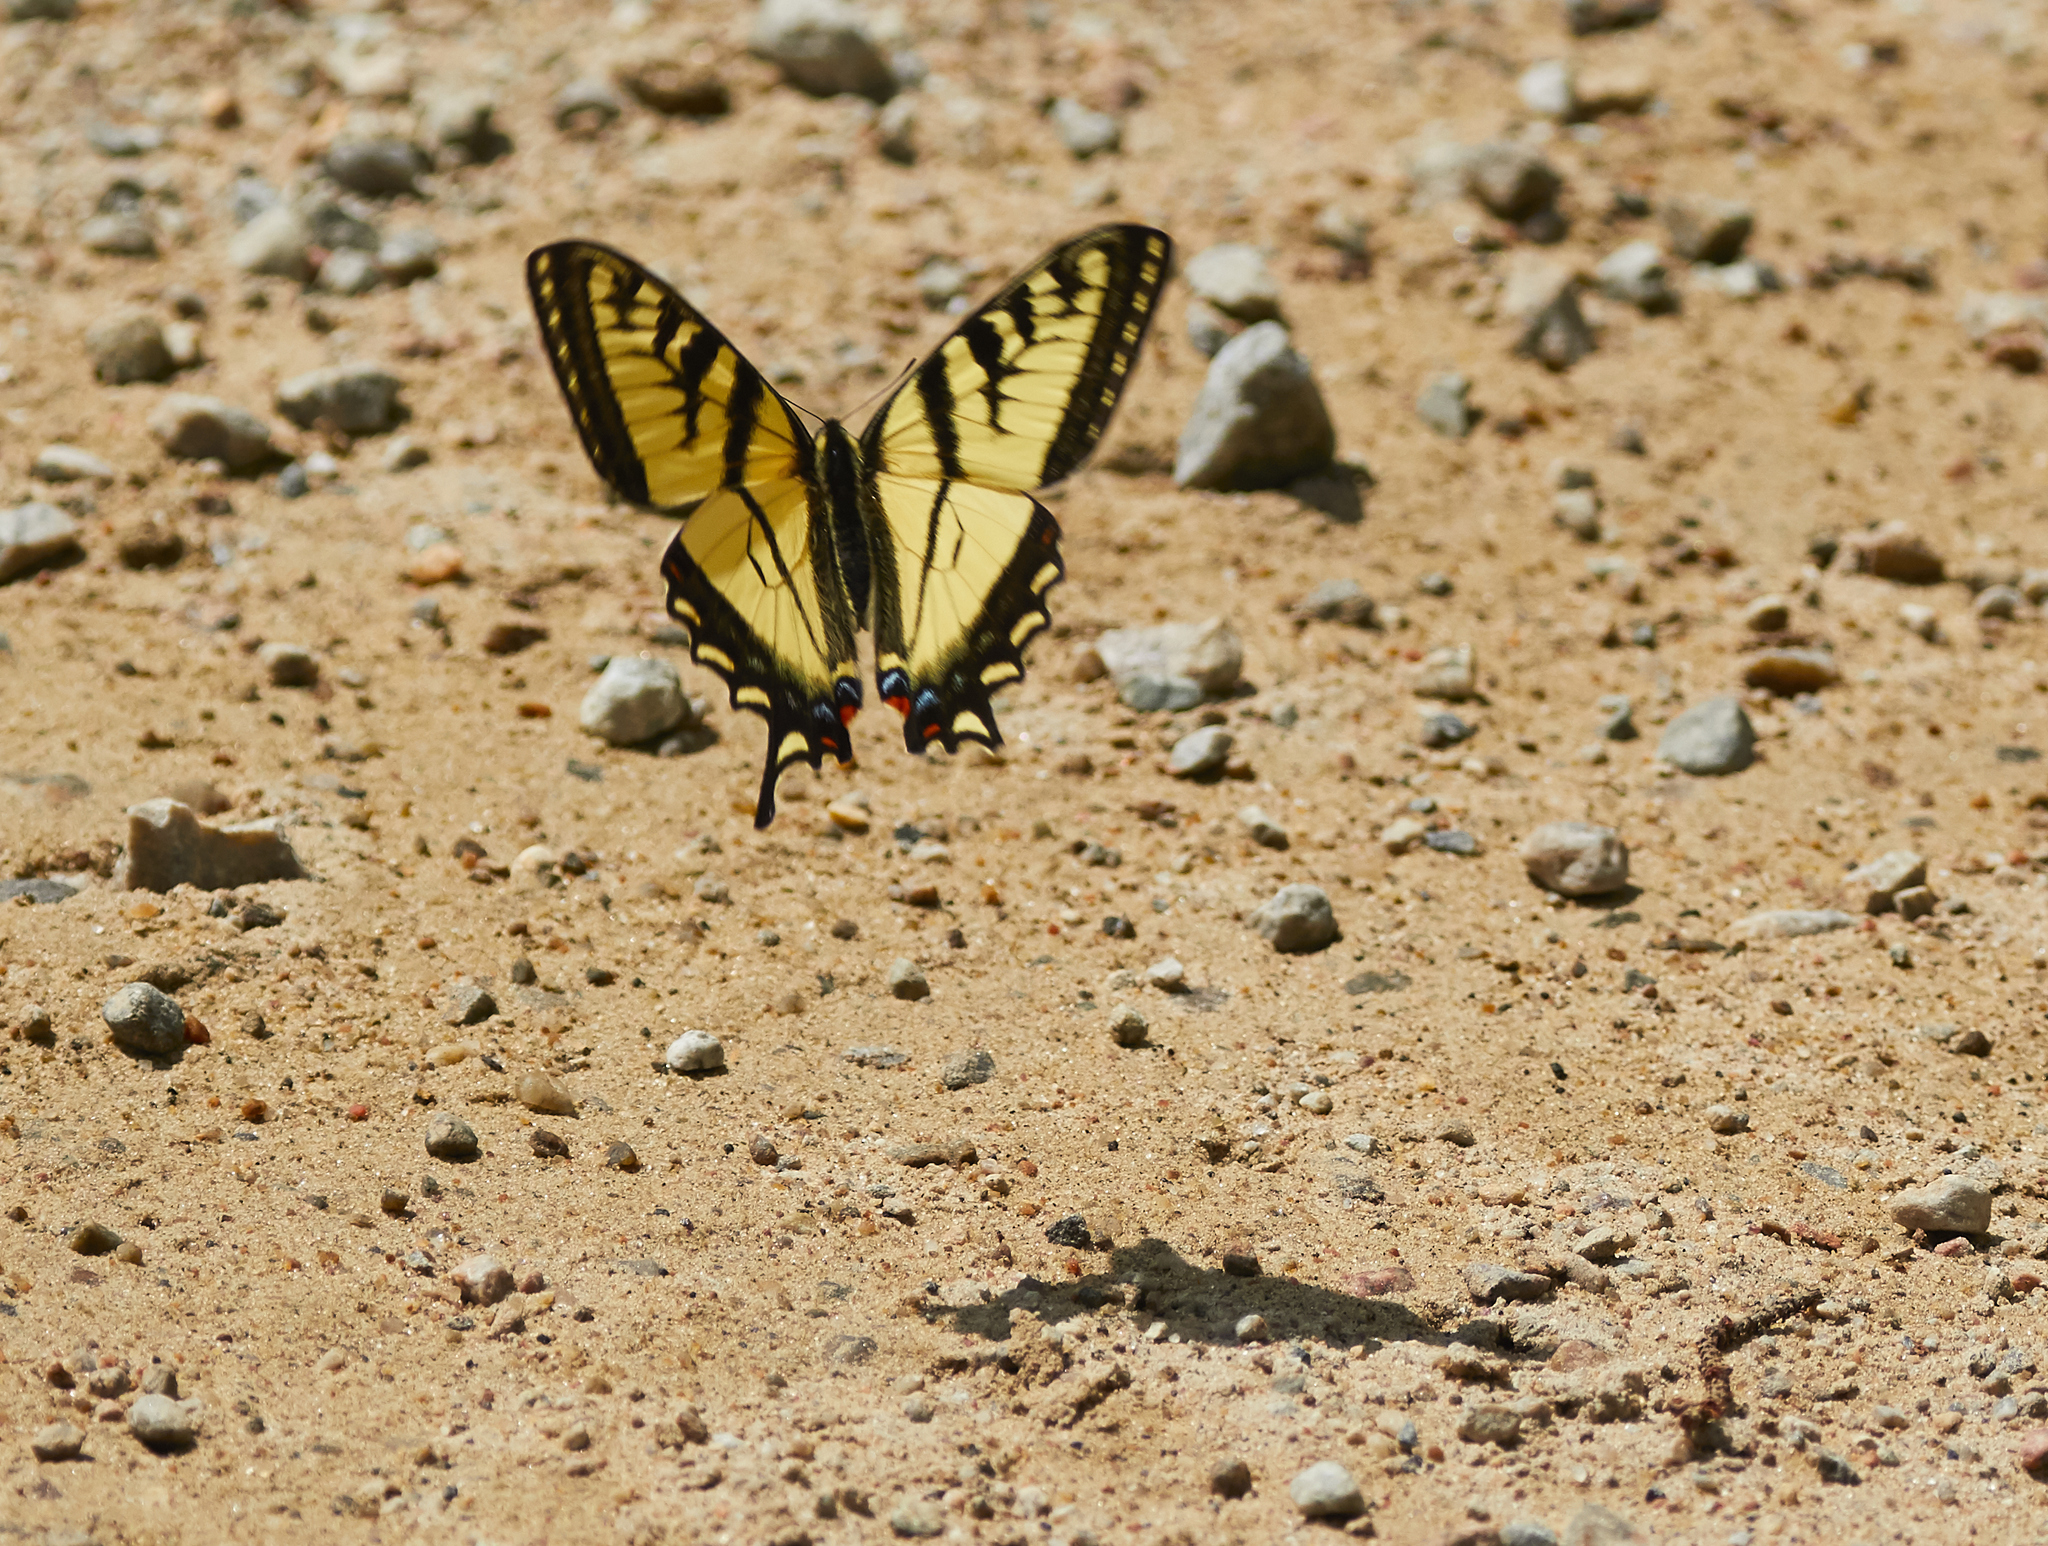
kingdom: Animalia
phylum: Arthropoda
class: Insecta
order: Lepidoptera
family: Papilionidae
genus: Papilio
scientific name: Papilio canadensis
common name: Canadian tiger swallowtail
